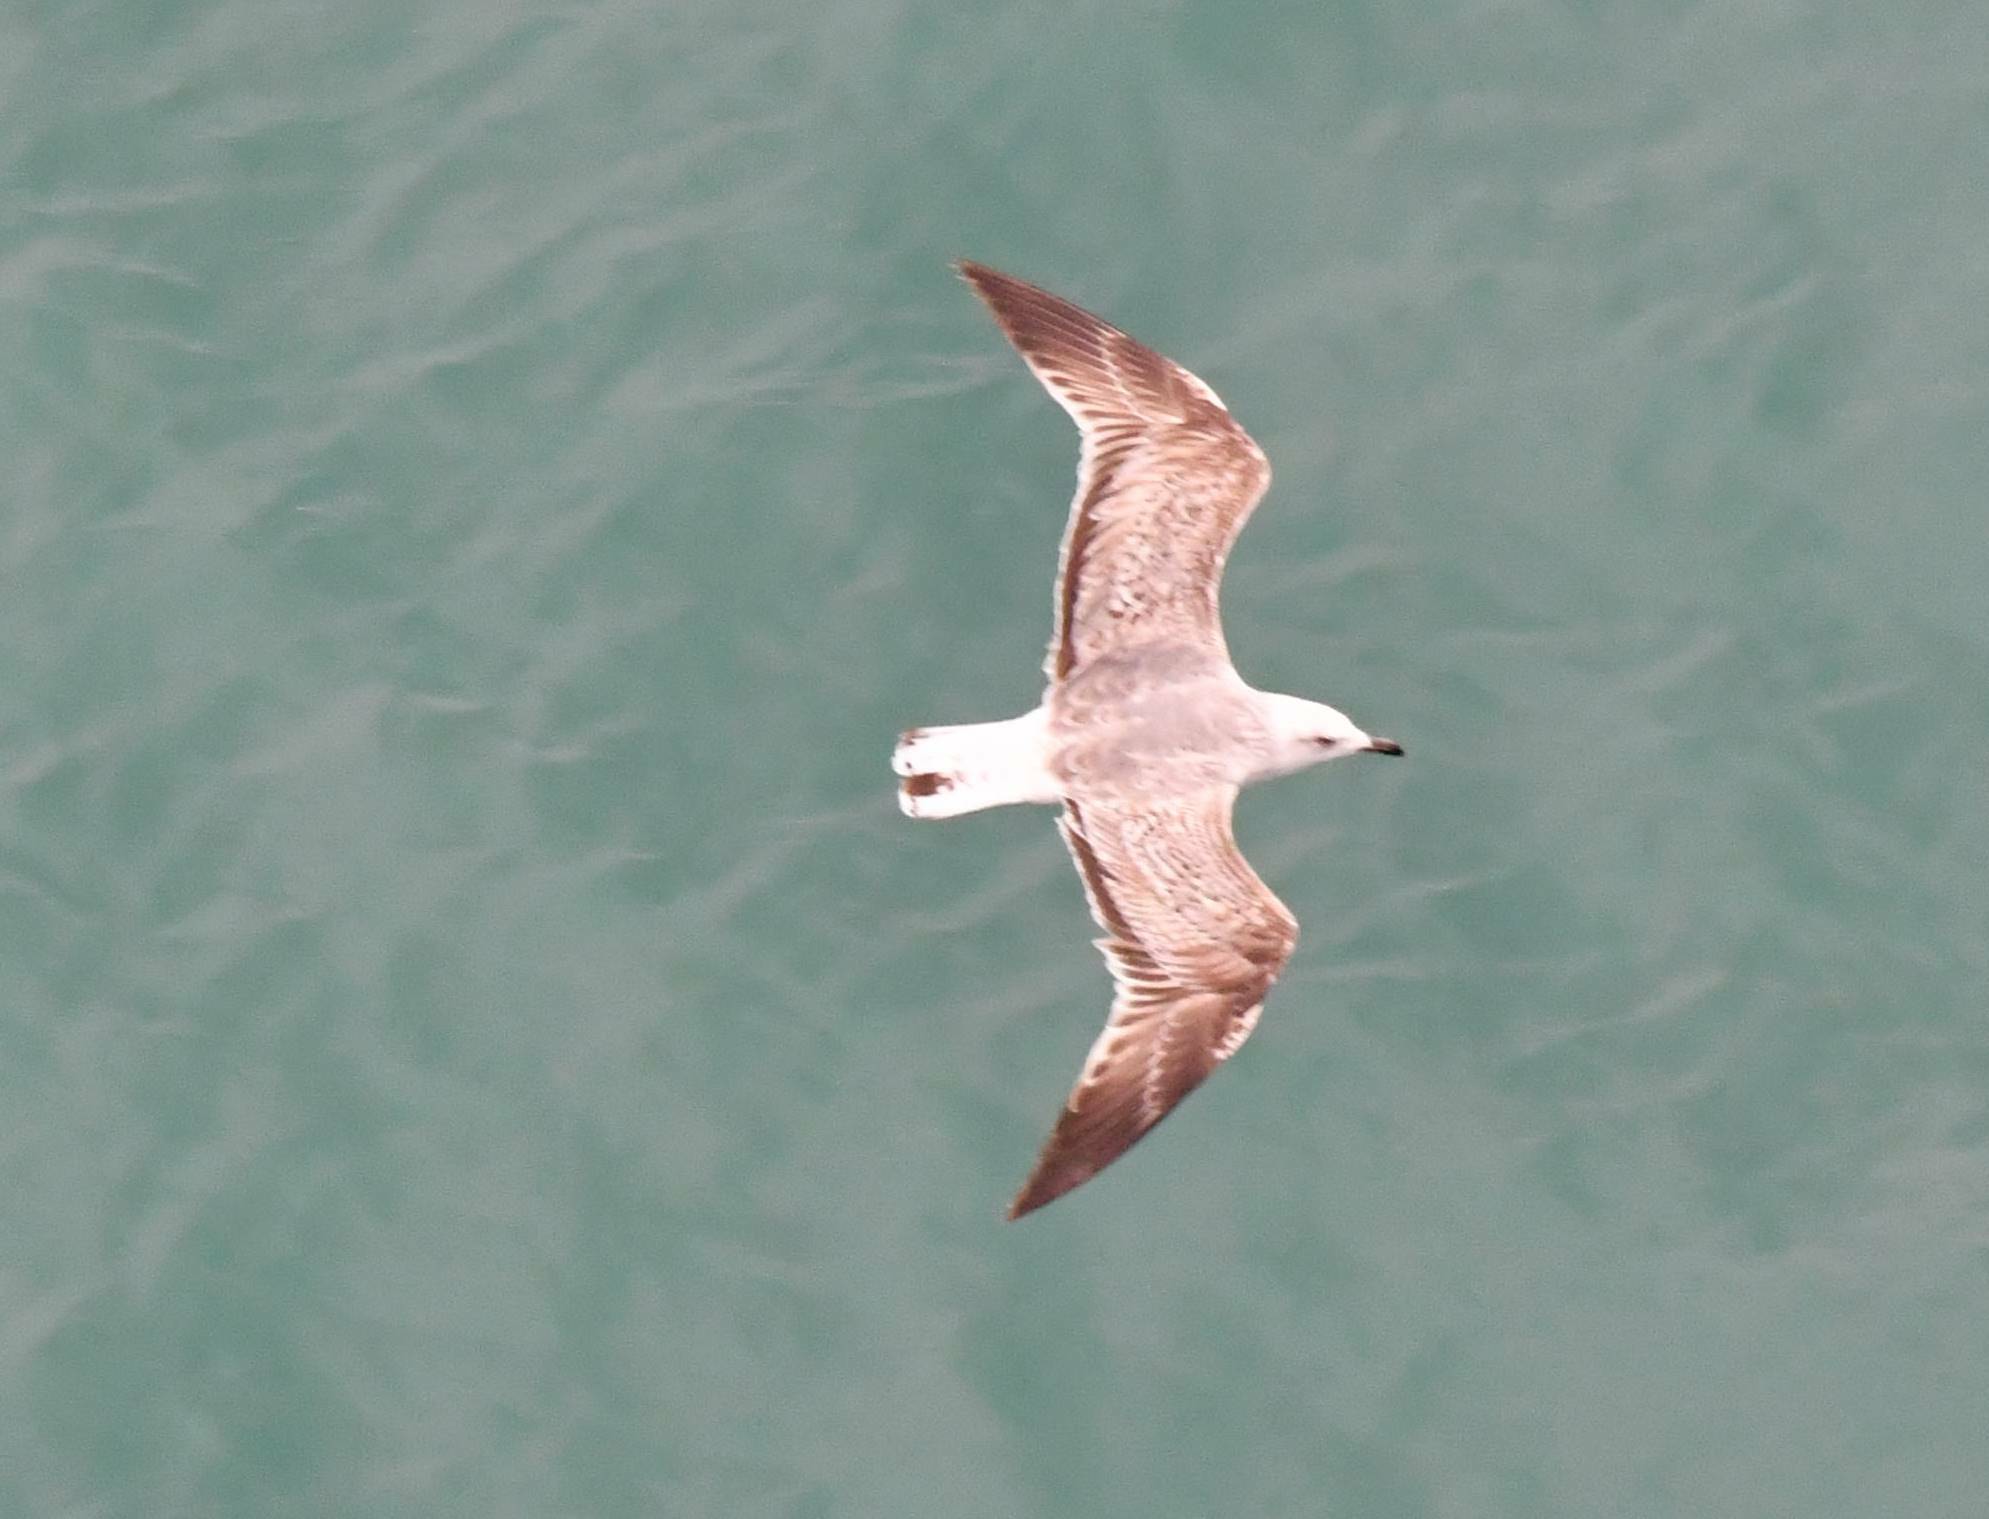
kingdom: Animalia
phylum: Chordata
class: Aves
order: Charadriiformes
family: Laridae
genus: Larus
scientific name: Larus michahellis
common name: Yellow-legged gull
